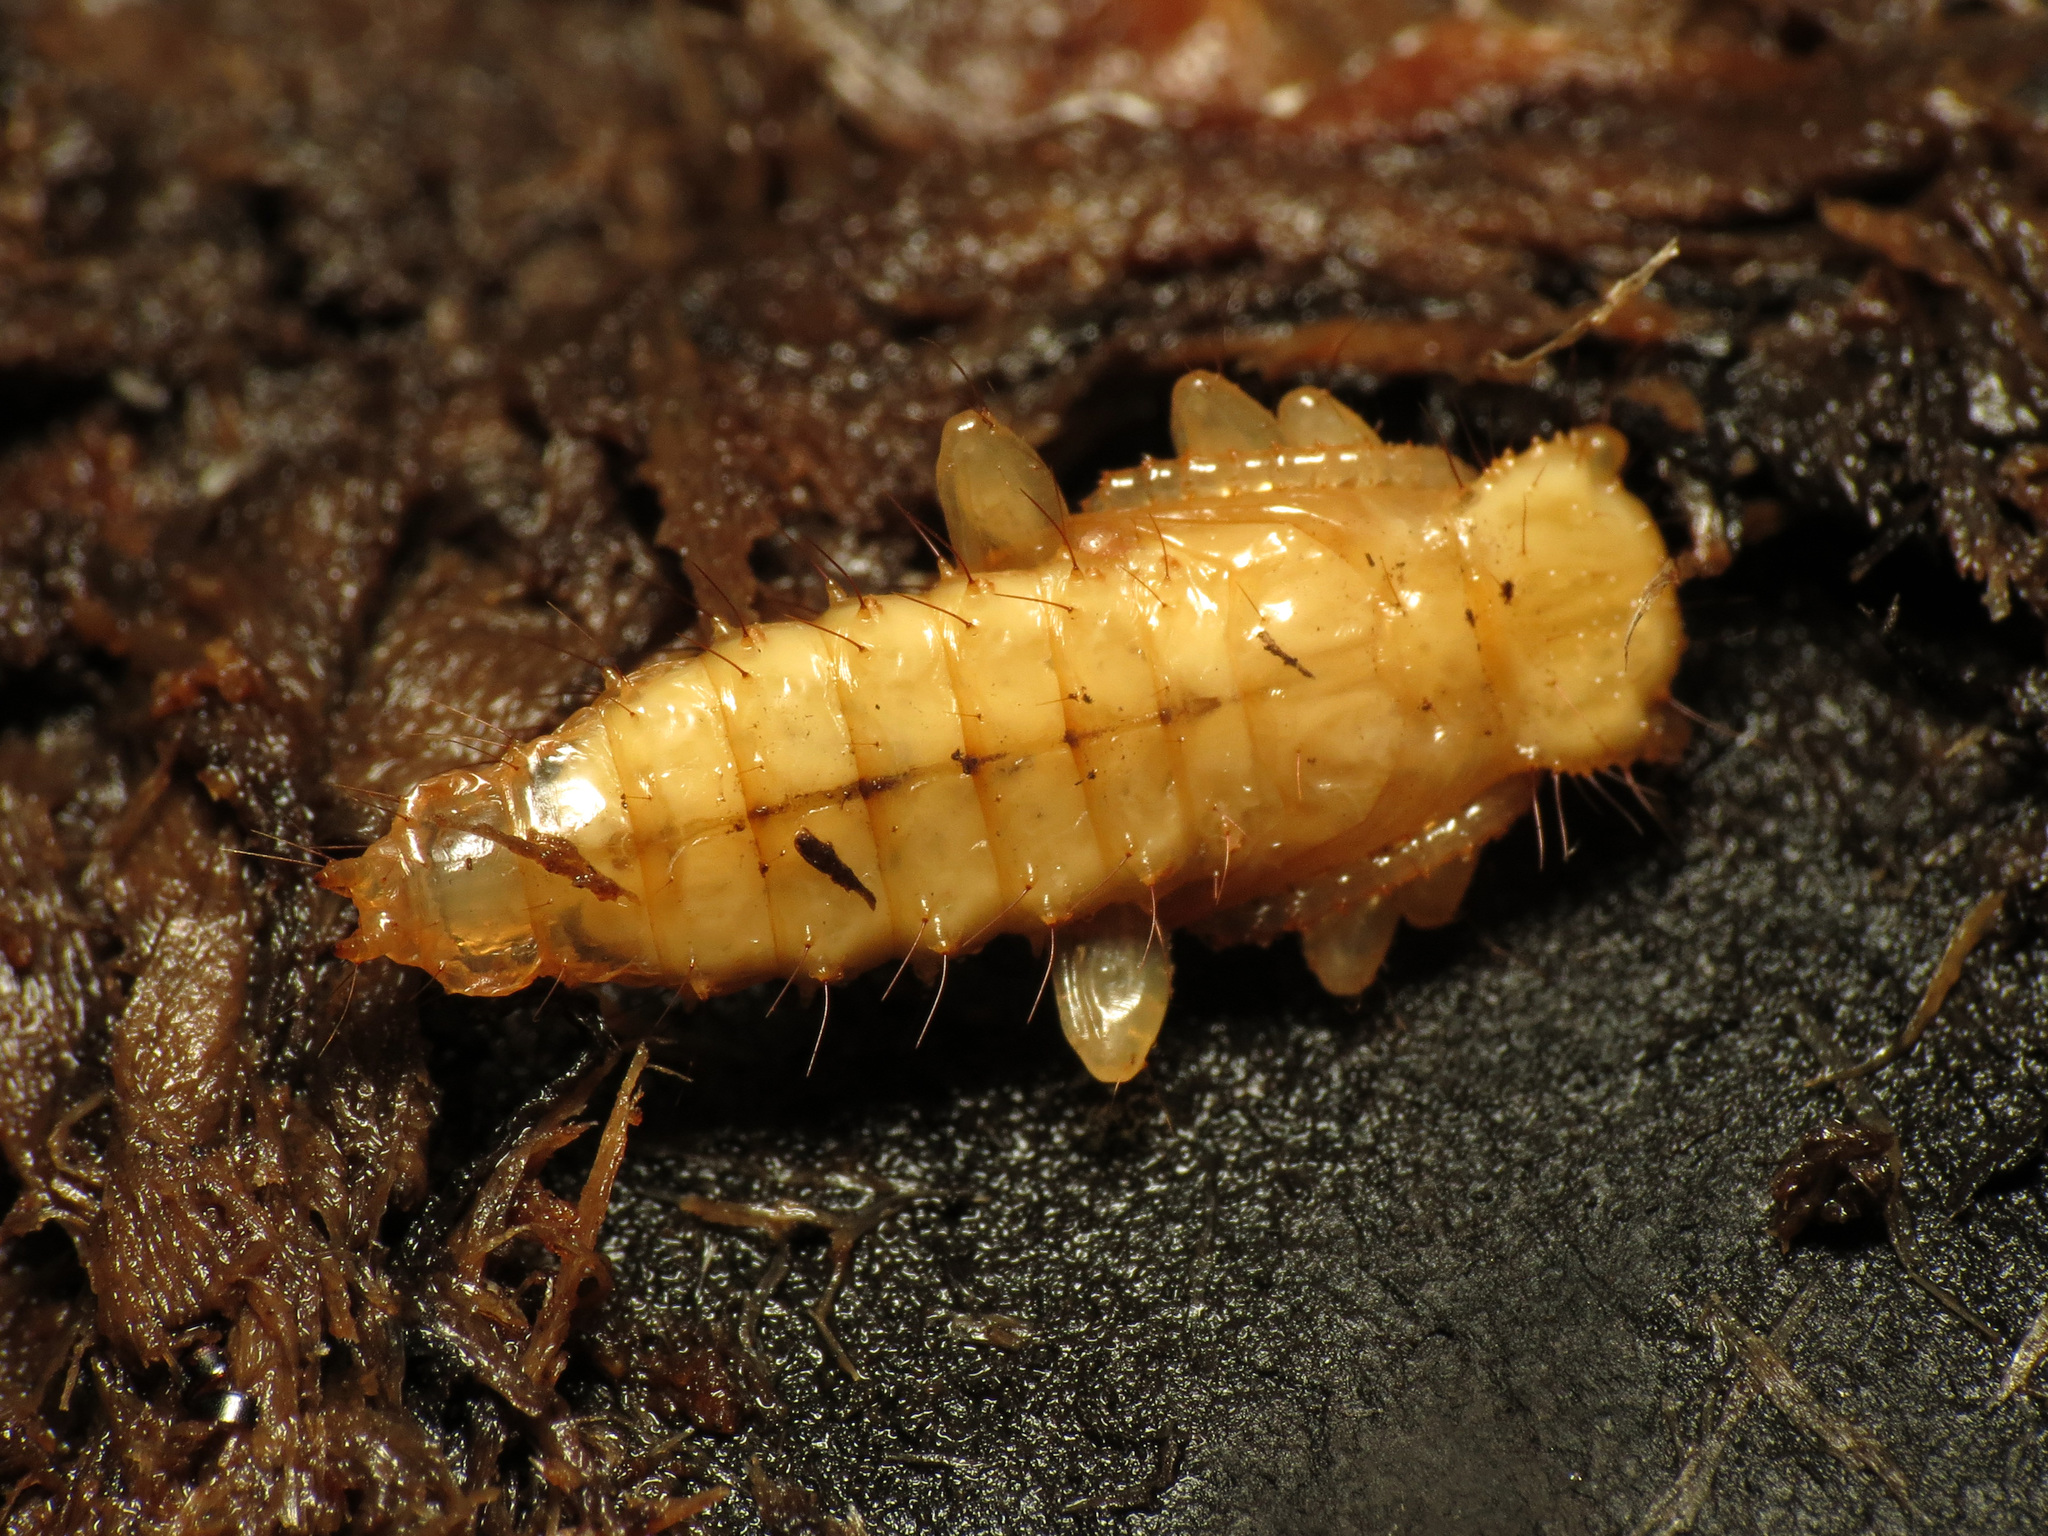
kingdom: Animalia
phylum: Arthropoda
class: Insecta
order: Coleoptera
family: Cucujidae
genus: Cucujus
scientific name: Cucujus clavipes
